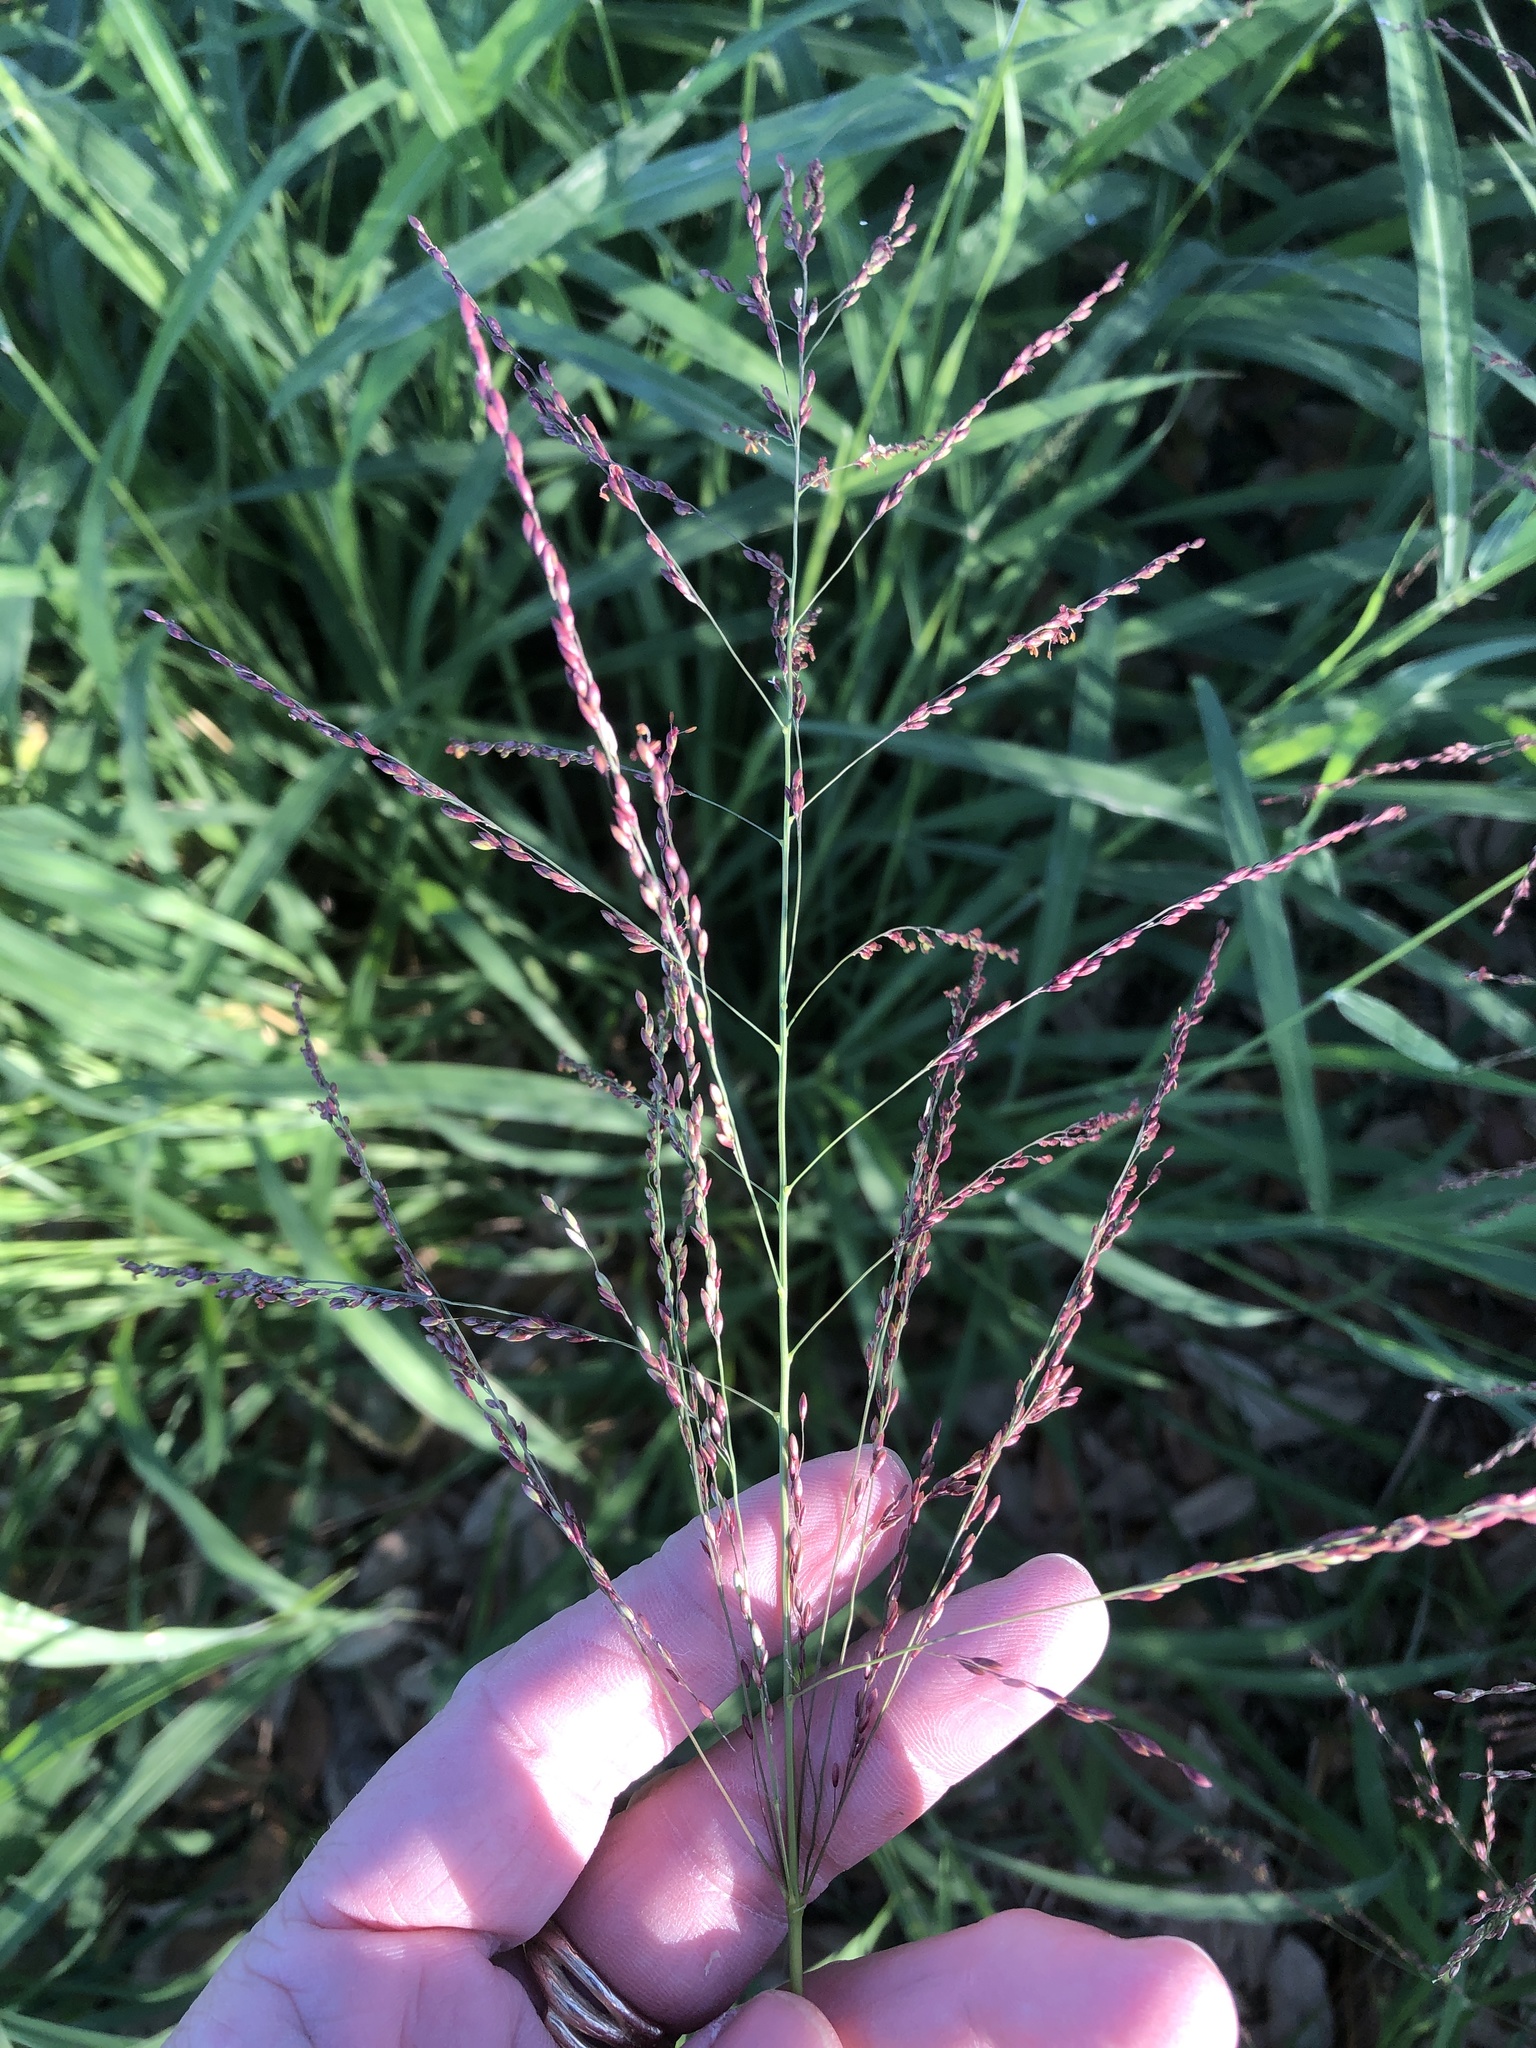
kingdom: Plantae
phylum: Tracheophyta
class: Liliopsida
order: Poales
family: Poaceae
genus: Megathyrsus
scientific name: Megathyrsus maximus
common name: Guineagrass
